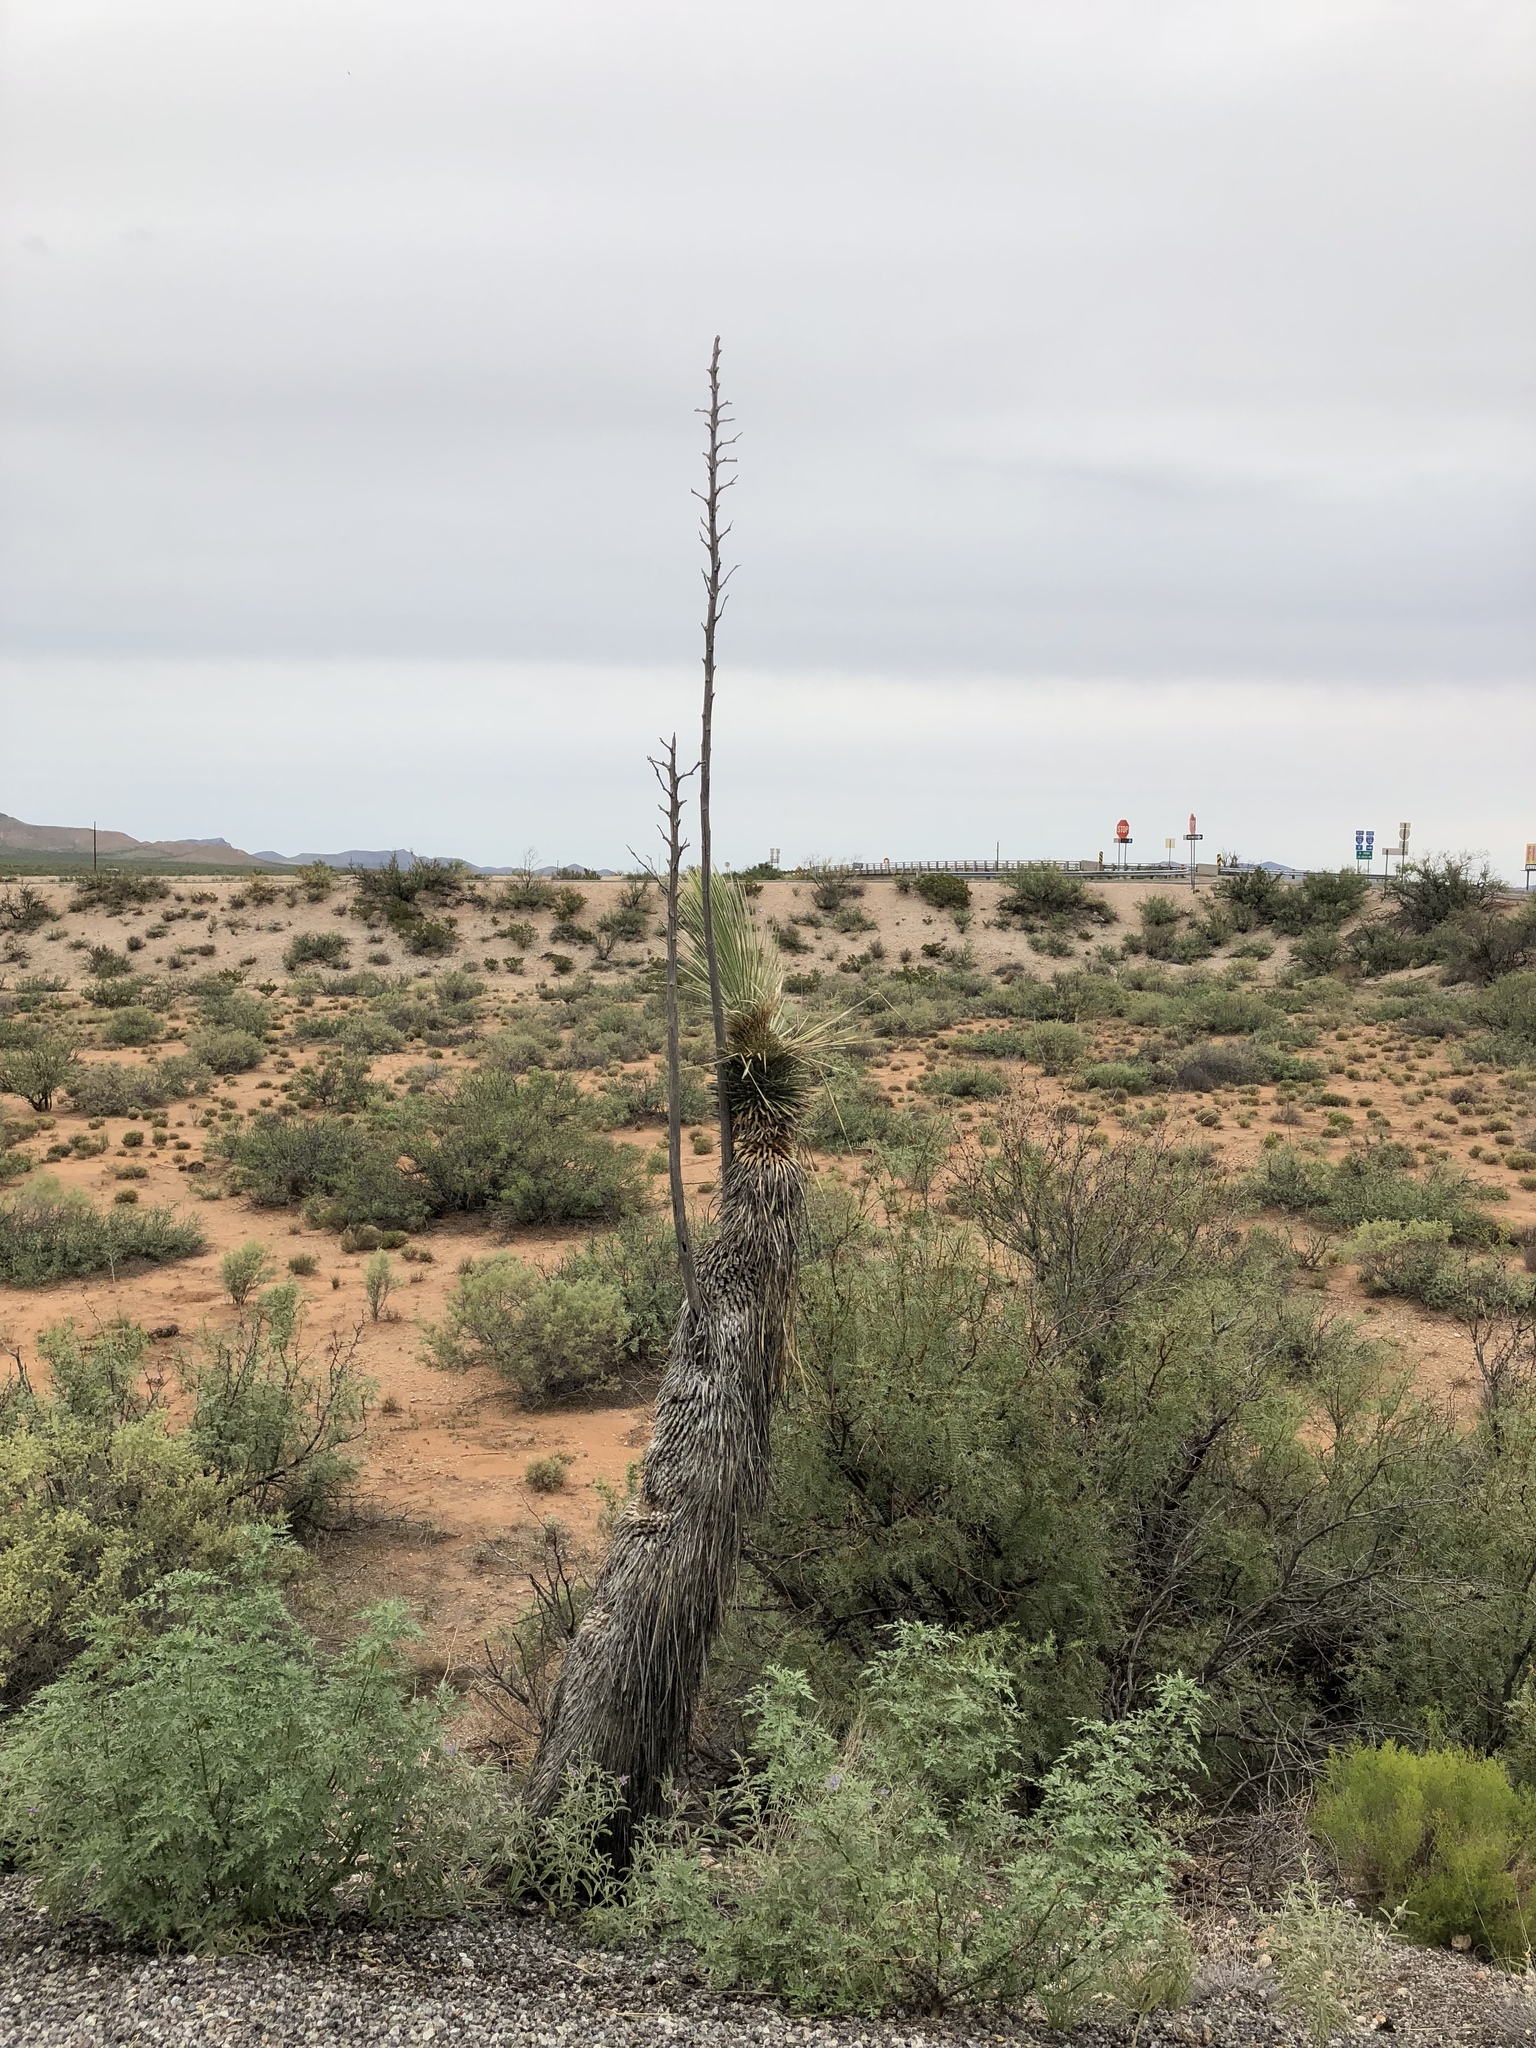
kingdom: Plantae
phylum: Tracheophyta
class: Liliopsida
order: Asparagales
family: Asparagaceae
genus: Yucca
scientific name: Yucca elata
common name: Palmella
